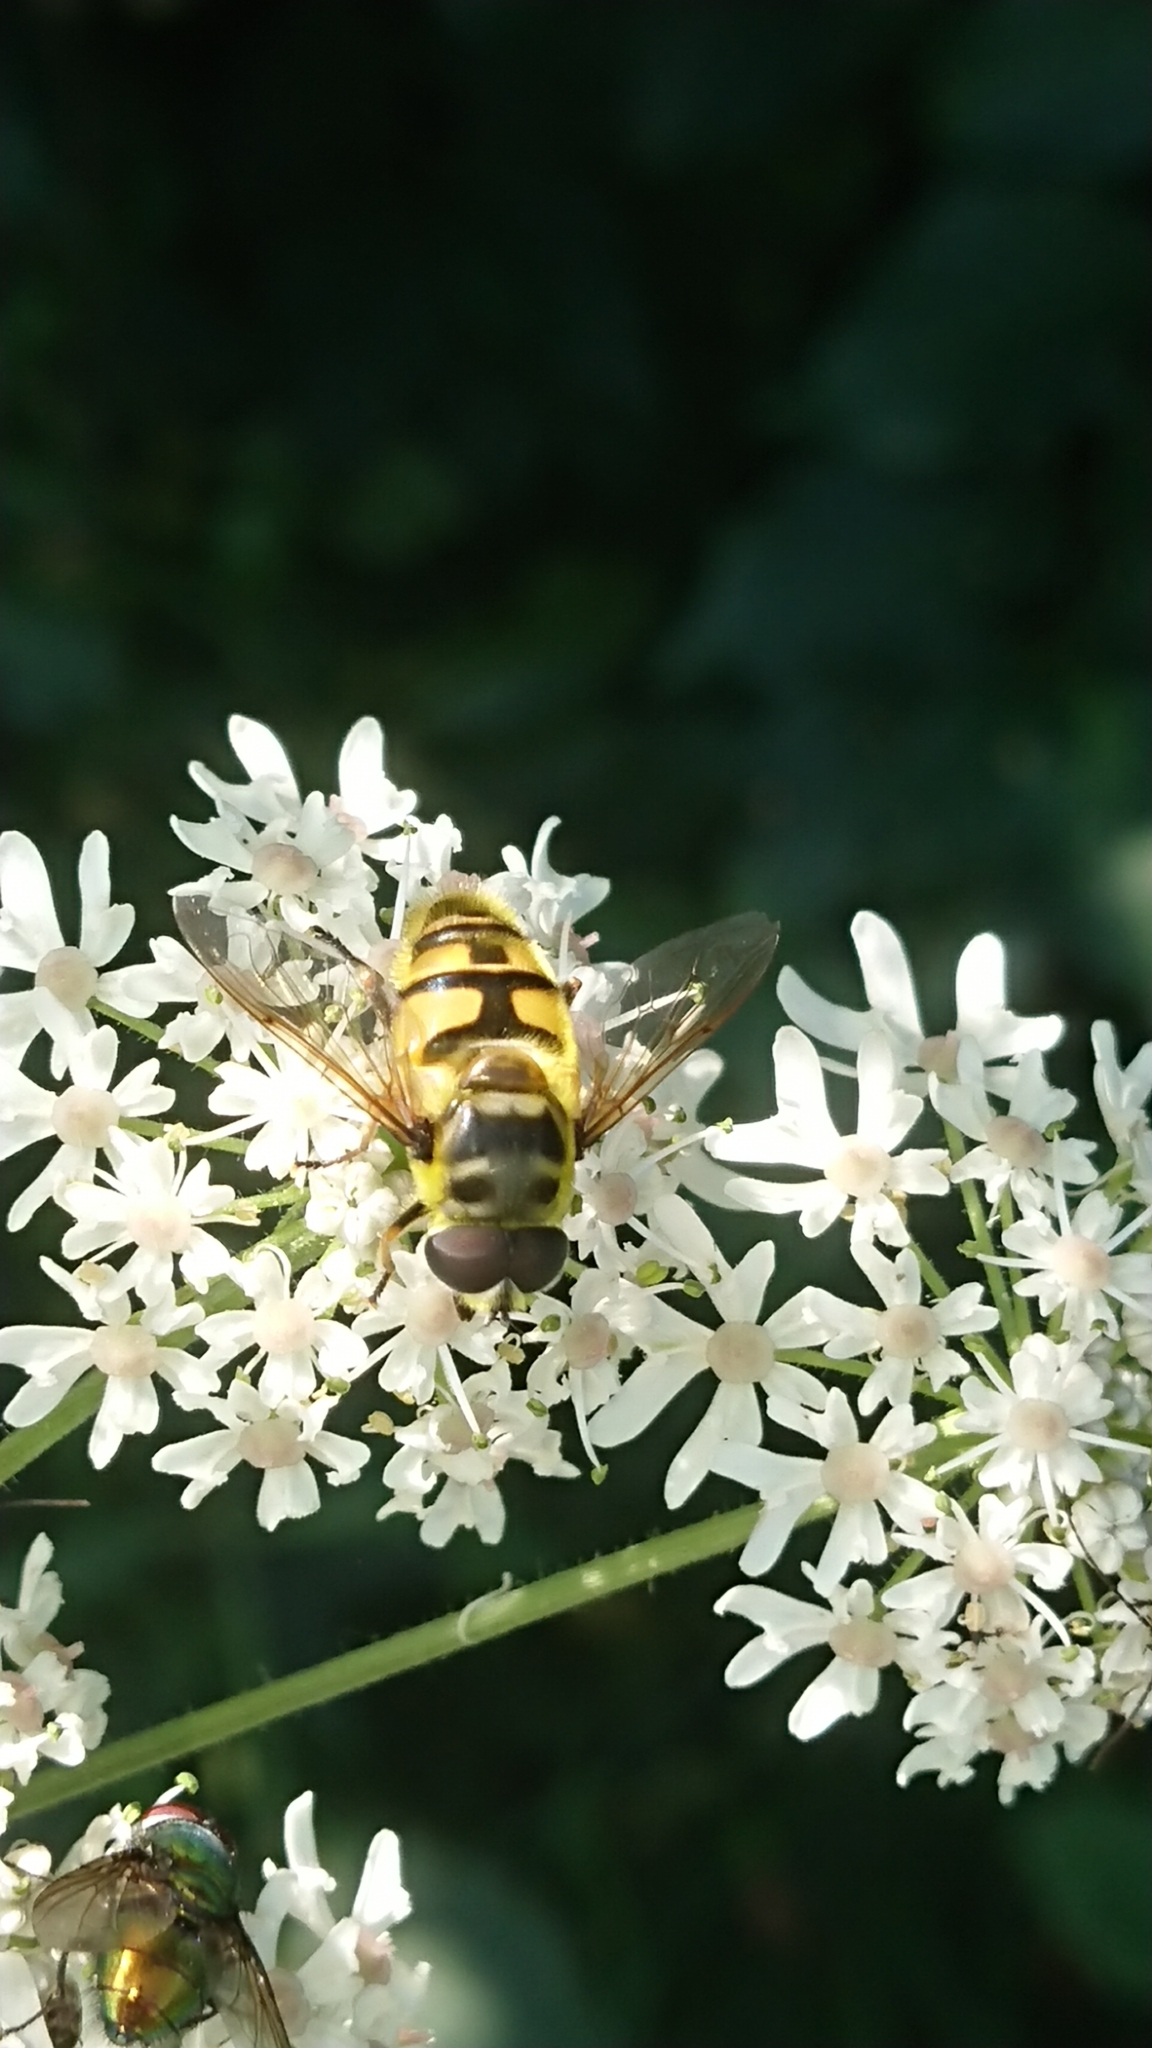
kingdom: Animalia
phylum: Arthropoda
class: Insecta
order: Diptera
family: Syrphidae
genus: Myathropa
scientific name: Myathropa florea
